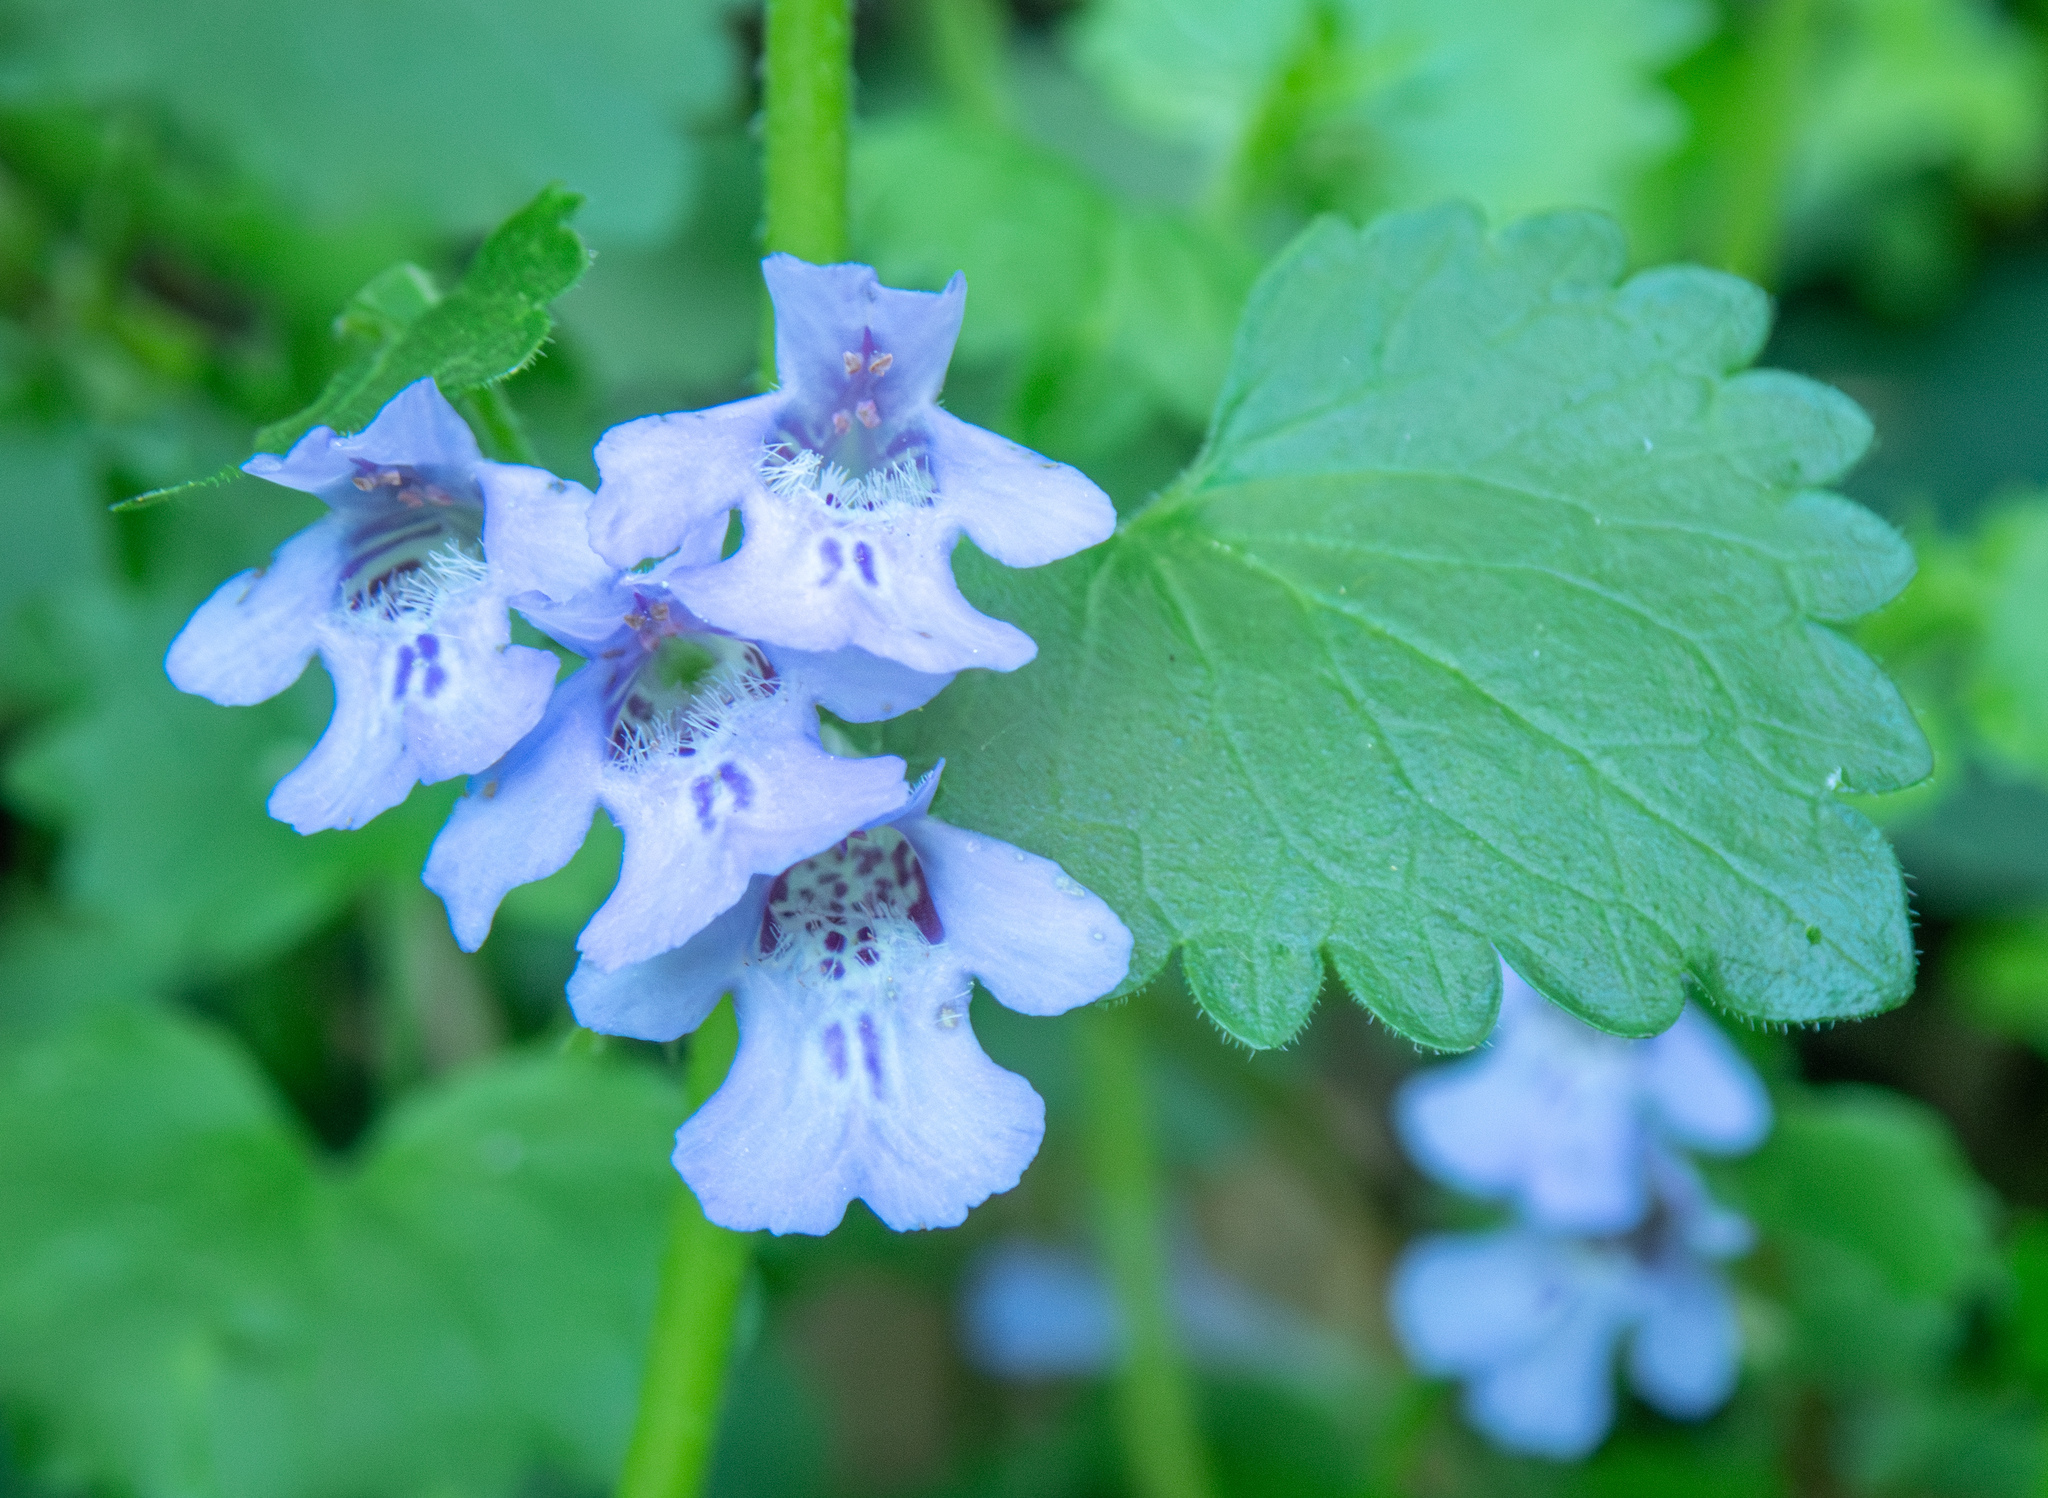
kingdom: Plantae
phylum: Tracheophyta
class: Magnoliopsida
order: Lamiales
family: Lamiaceae
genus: Glechoma
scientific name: Glechoma hederacea
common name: Ground ivy
